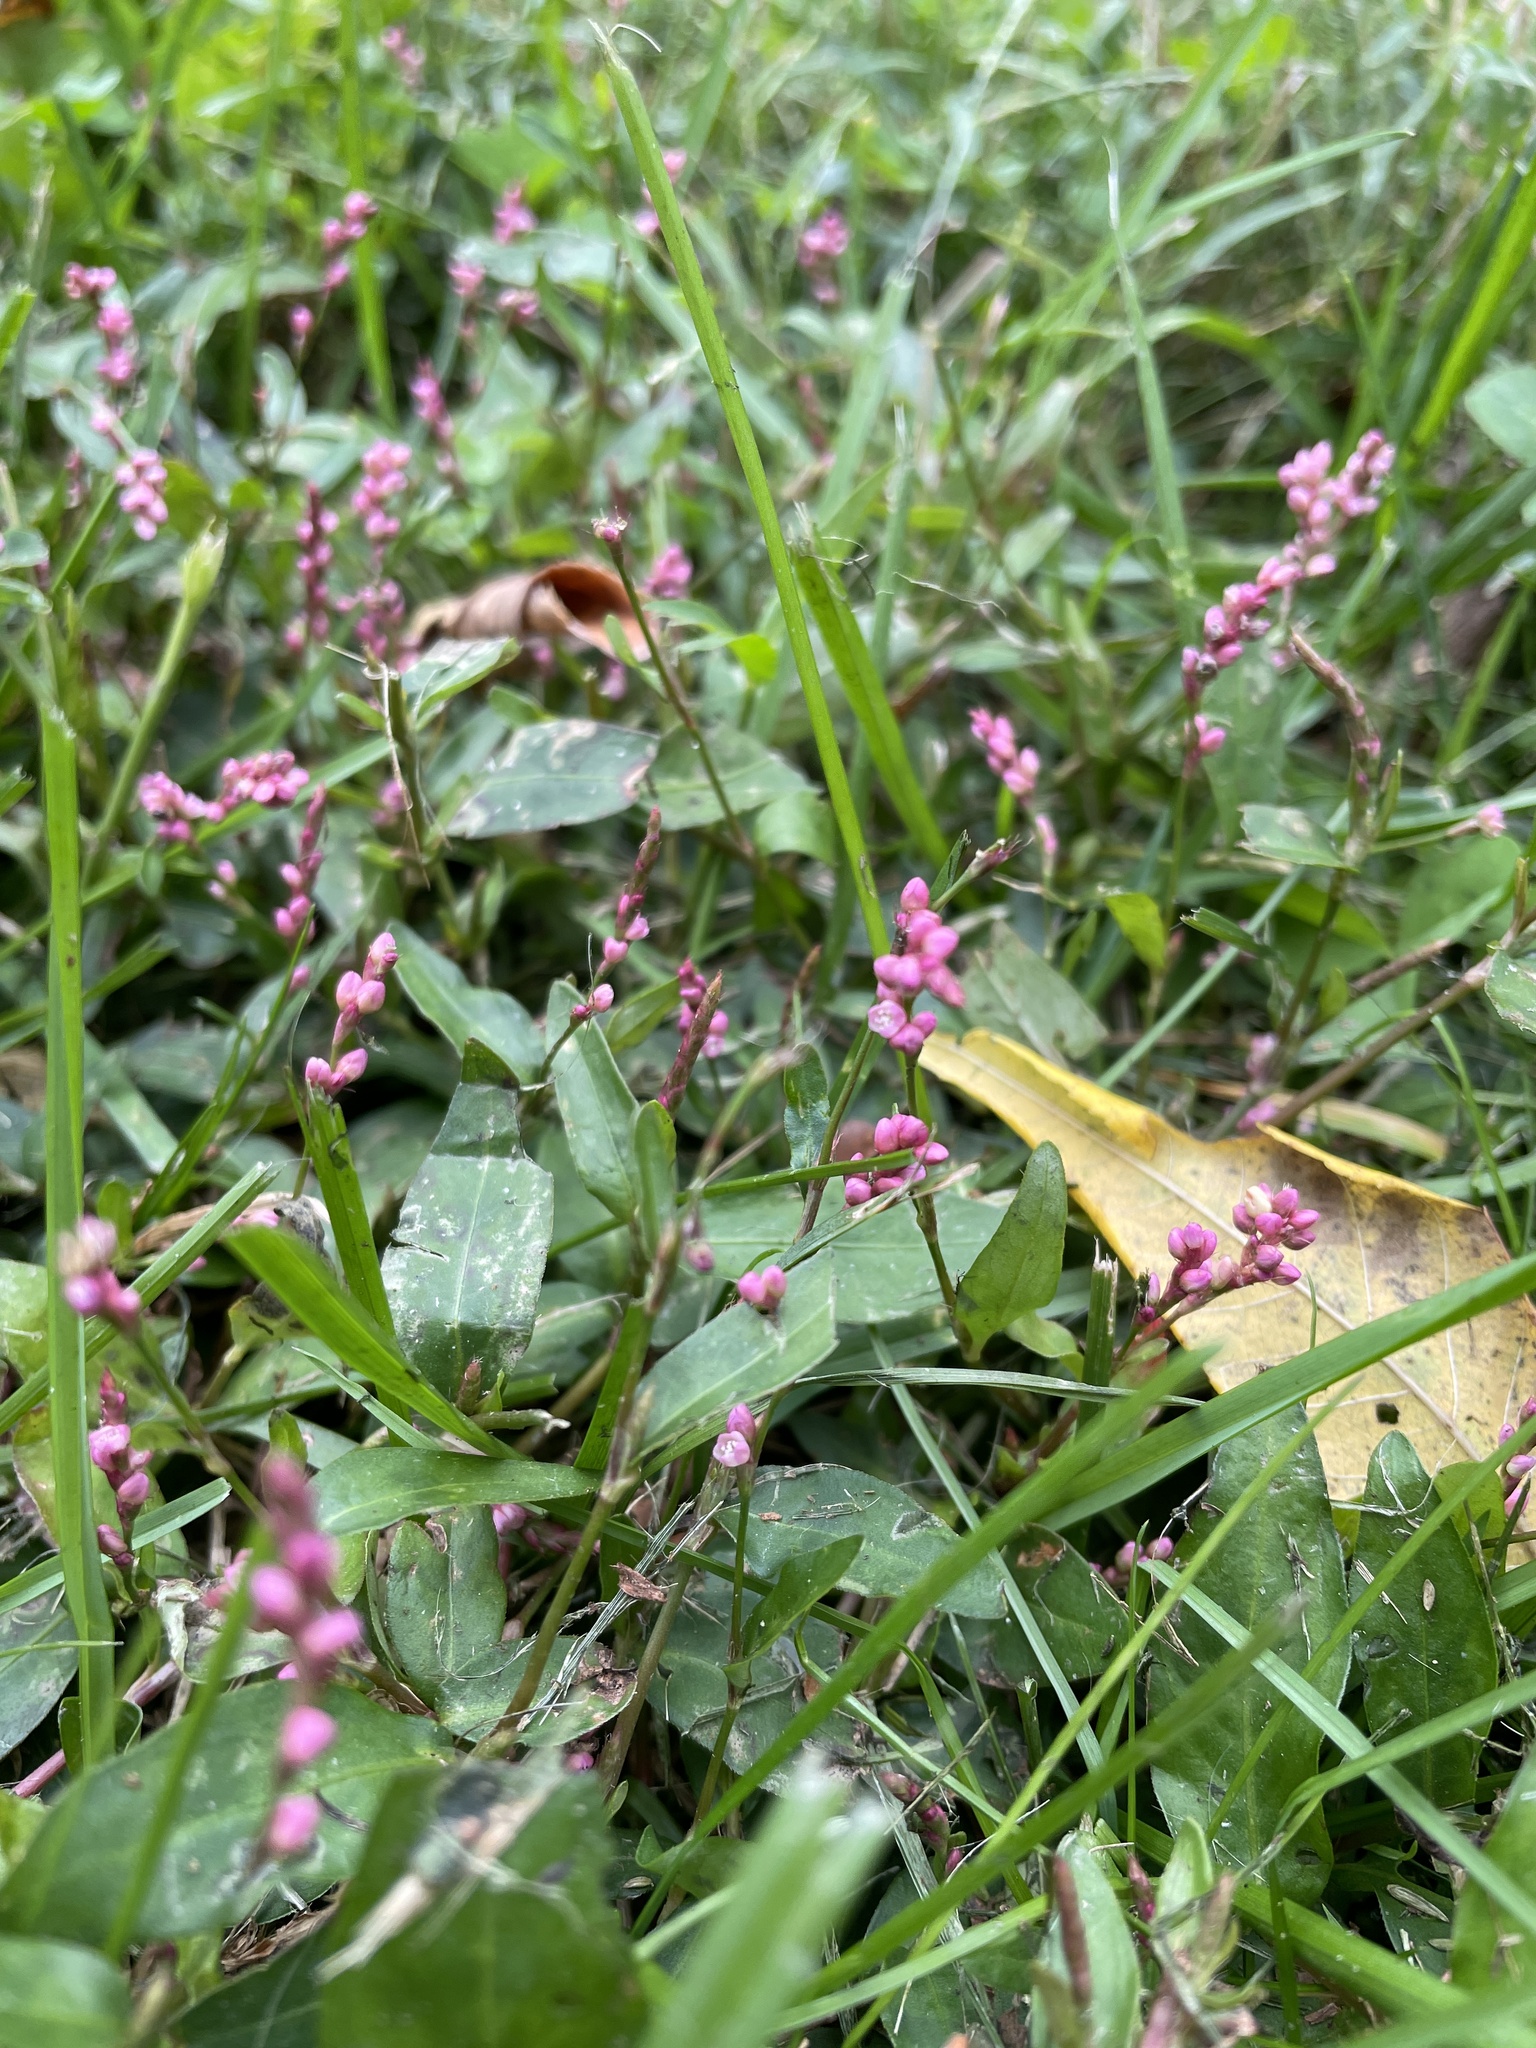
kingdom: Plantae
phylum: Tracheophyta
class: Magnoliopsida
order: Caryophyllales
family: Polygonaceae
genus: Persicaria
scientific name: Persicaria longiseta
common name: Bristly lady's-thumb
